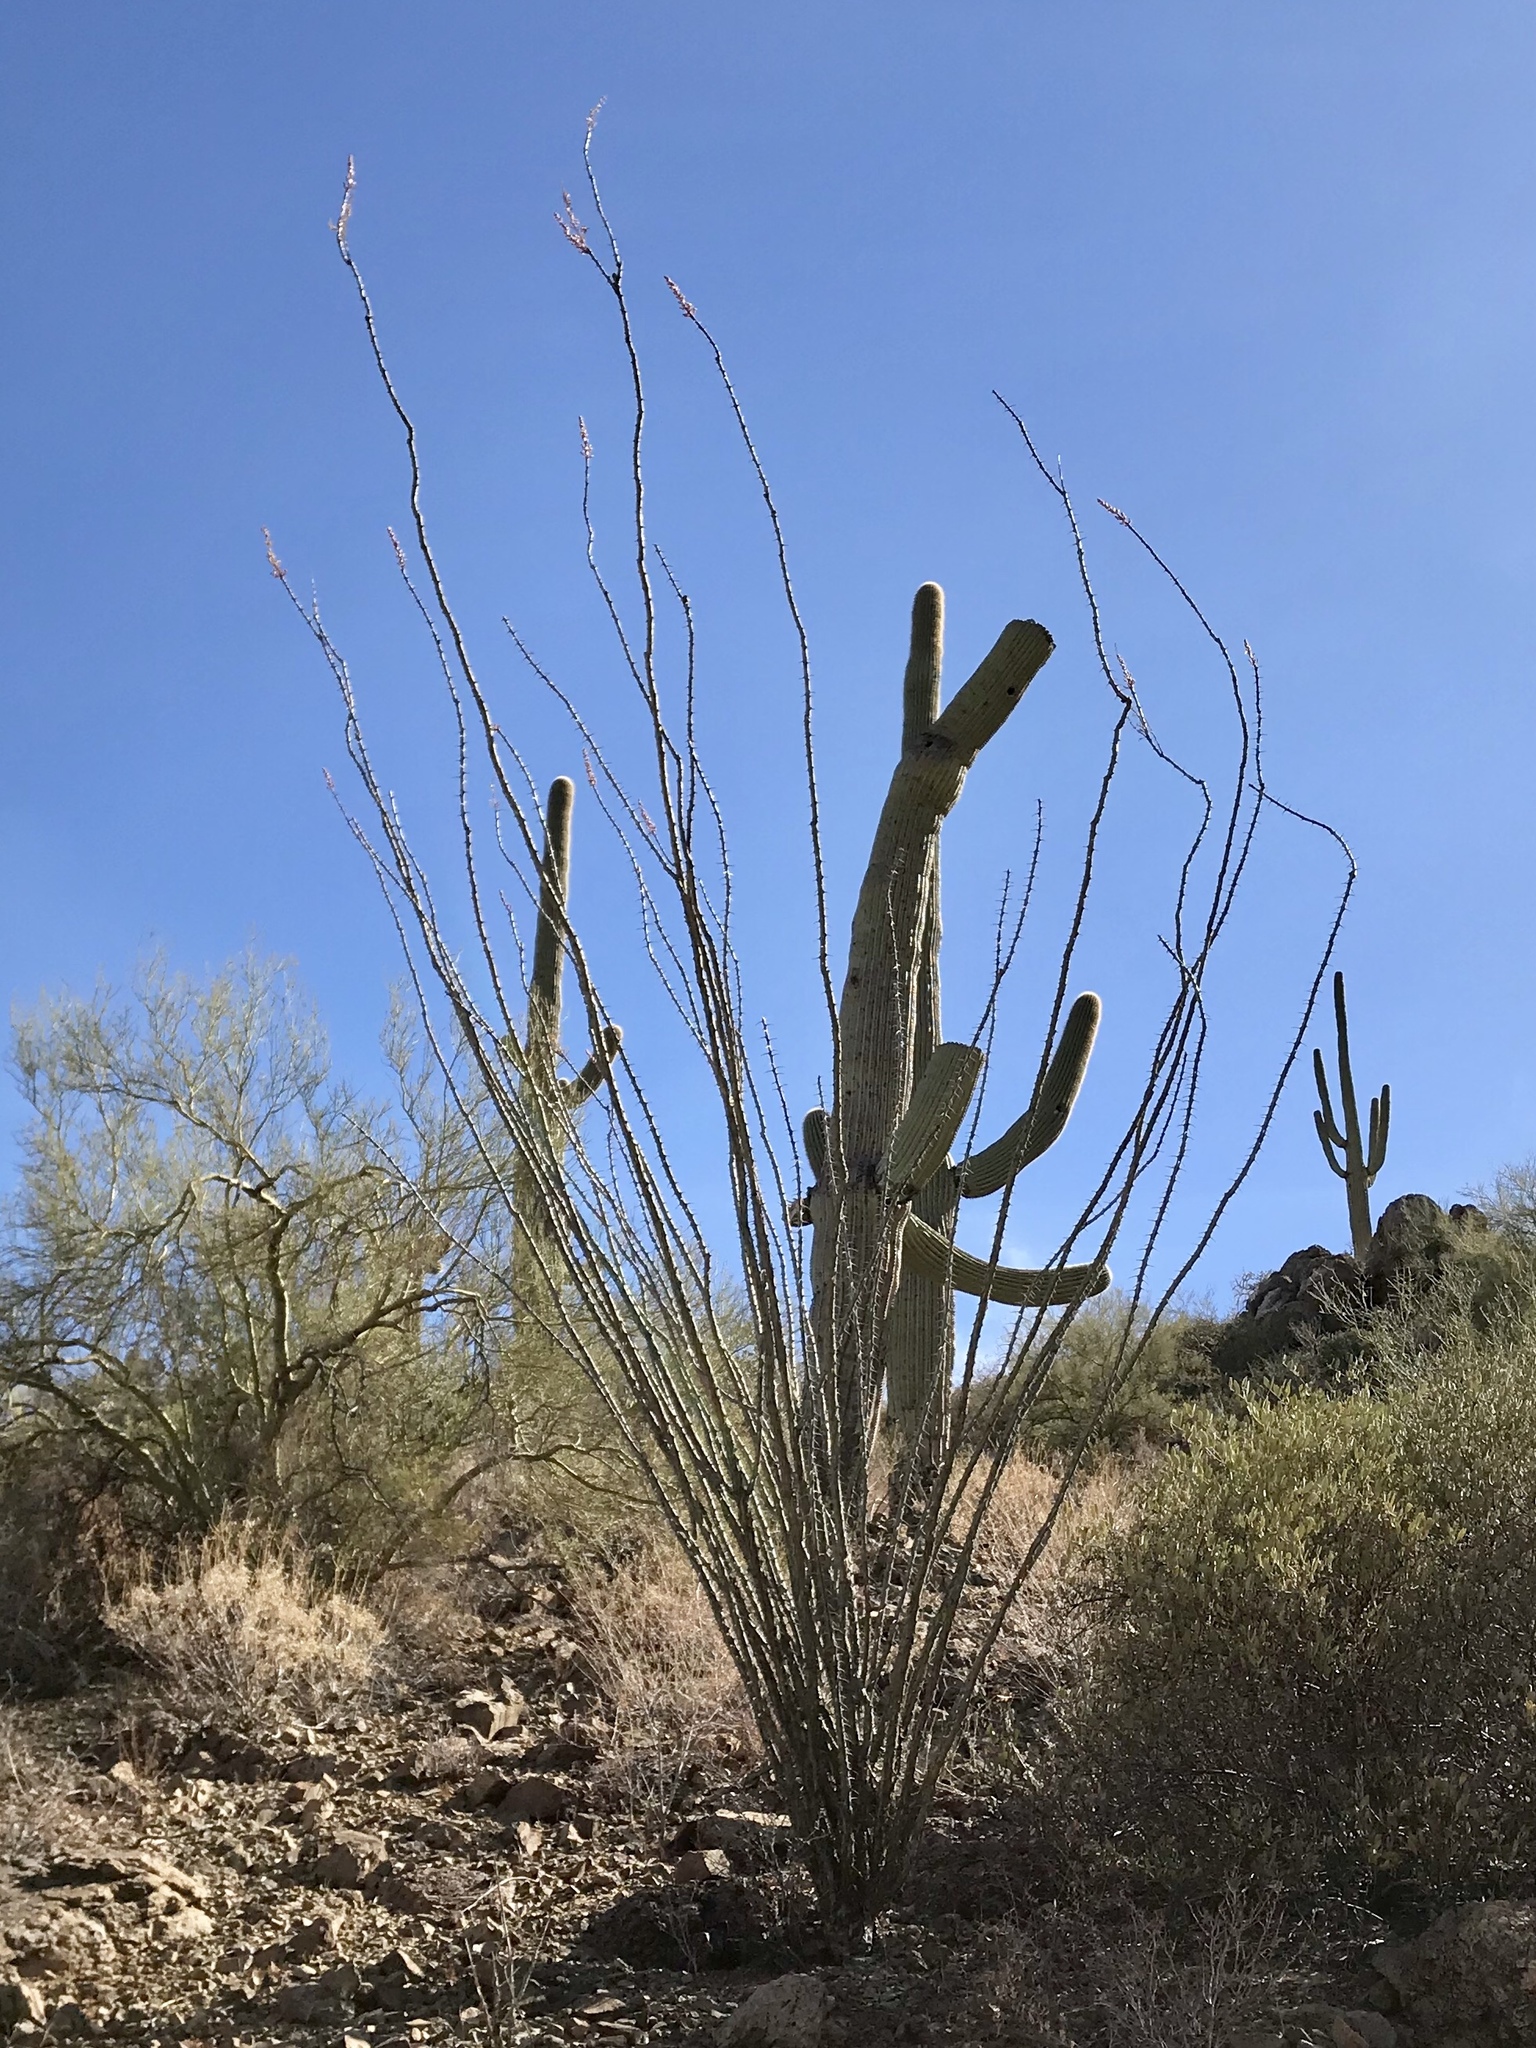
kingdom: Plantae
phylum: Tracheophyta
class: Magnoliopsida
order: Ericales
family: Fouquieriaceae
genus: Fouquieria
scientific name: Fouquieria splendens
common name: Vine-cactus
